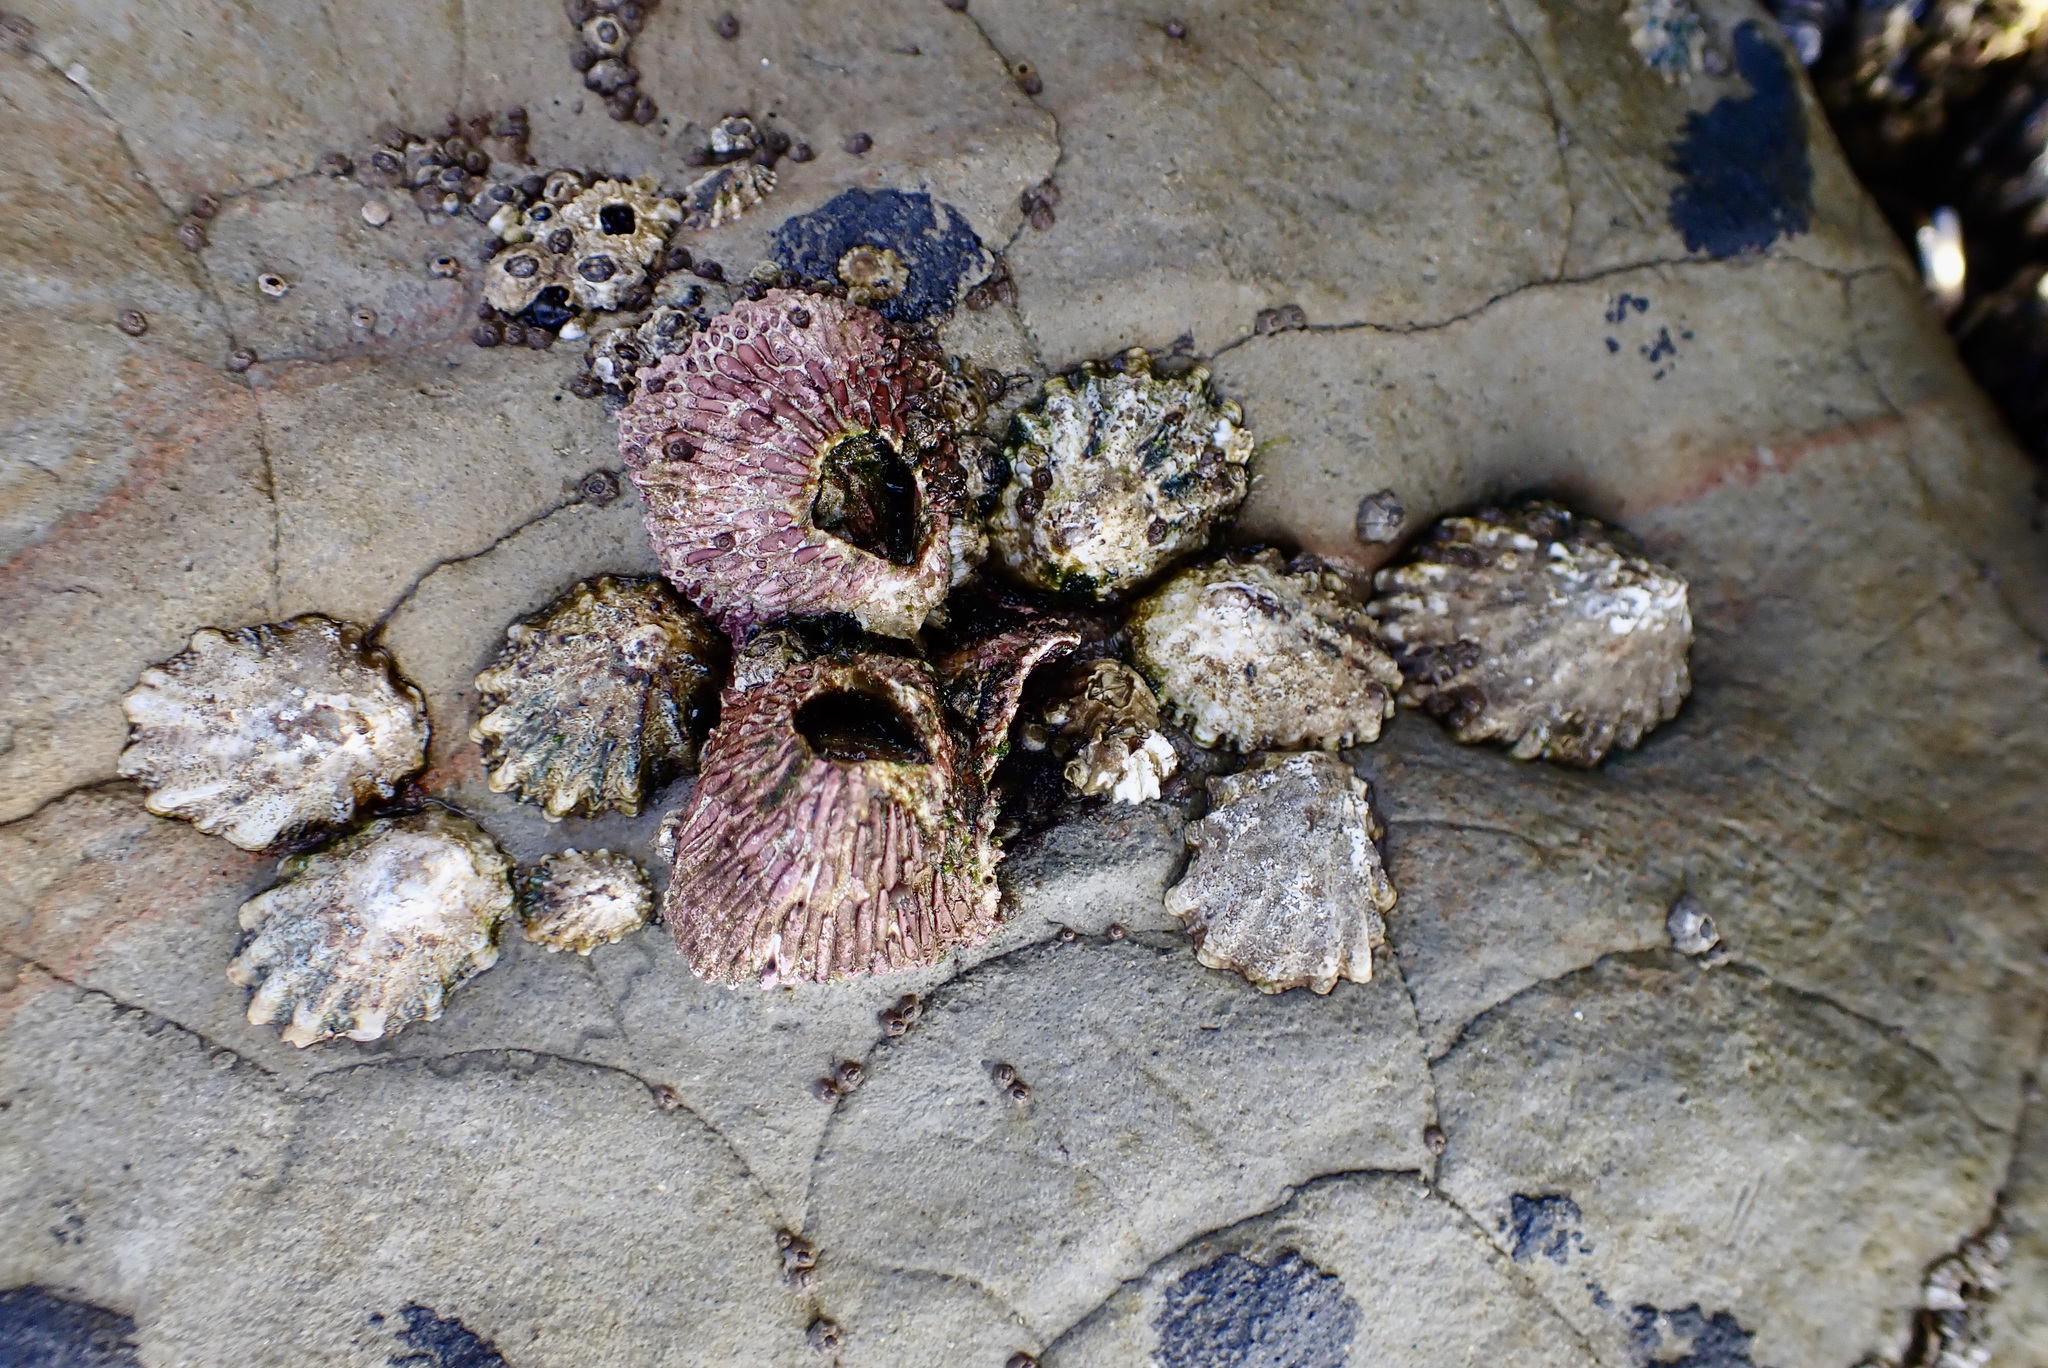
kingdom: Animalia
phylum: Arthropoda
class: Maxillopoda
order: Sessilia
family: Tetraclitidae
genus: Tetraclita
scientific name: Tetraclita rubescens
